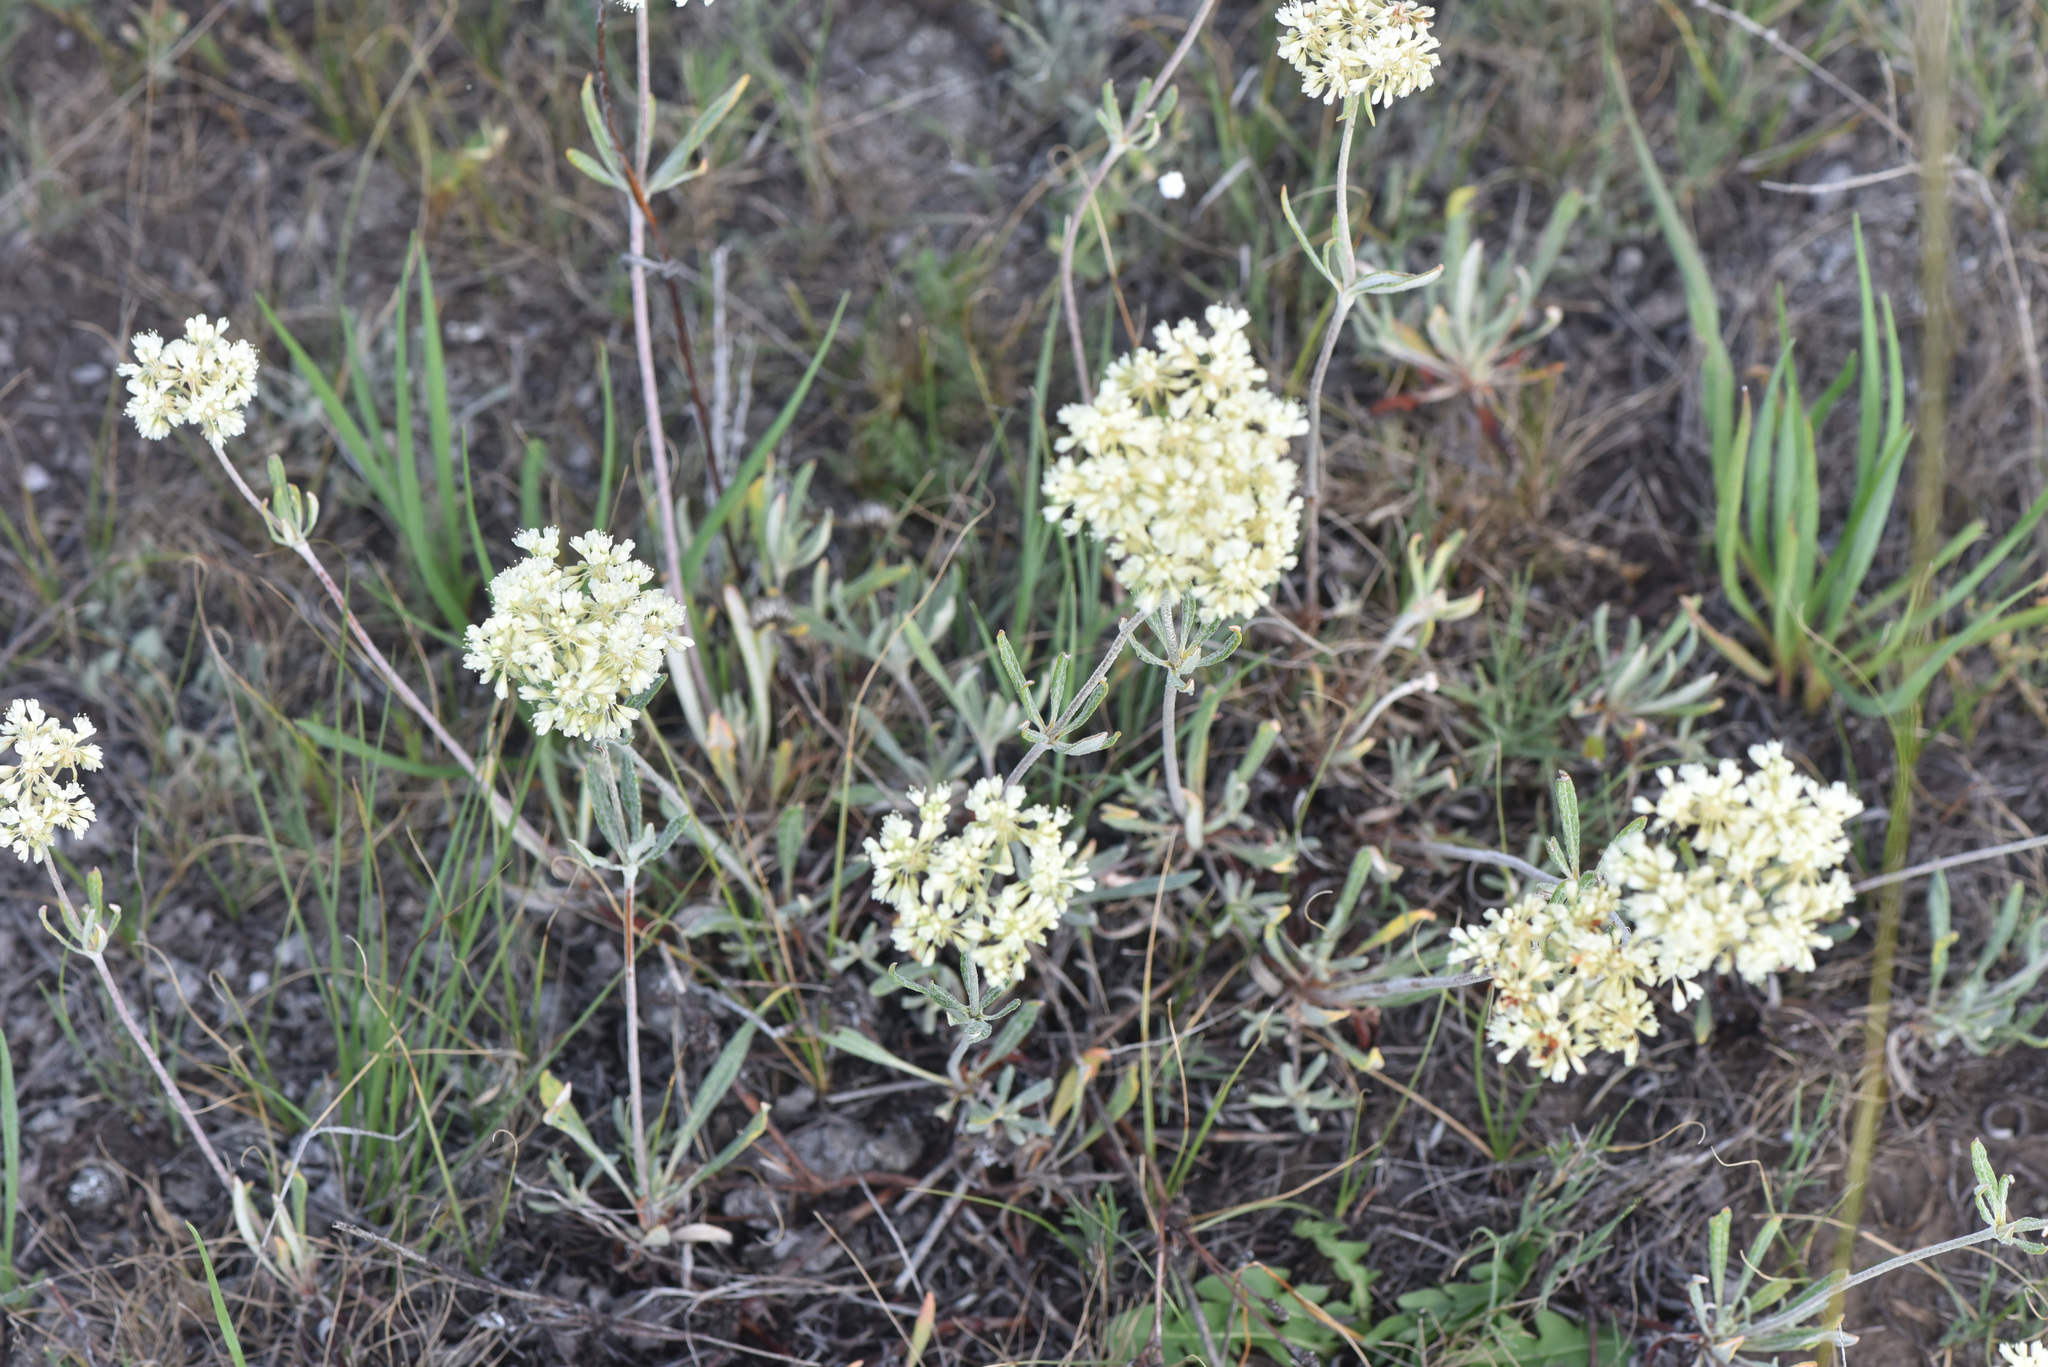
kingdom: Plantae
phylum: Tracheophyta
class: Magnoliopsida
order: Caryophyllales
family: Polygonaceae
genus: Eriogonum
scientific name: Eriogonum heracleoides
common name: Wyeth's buckwheat
